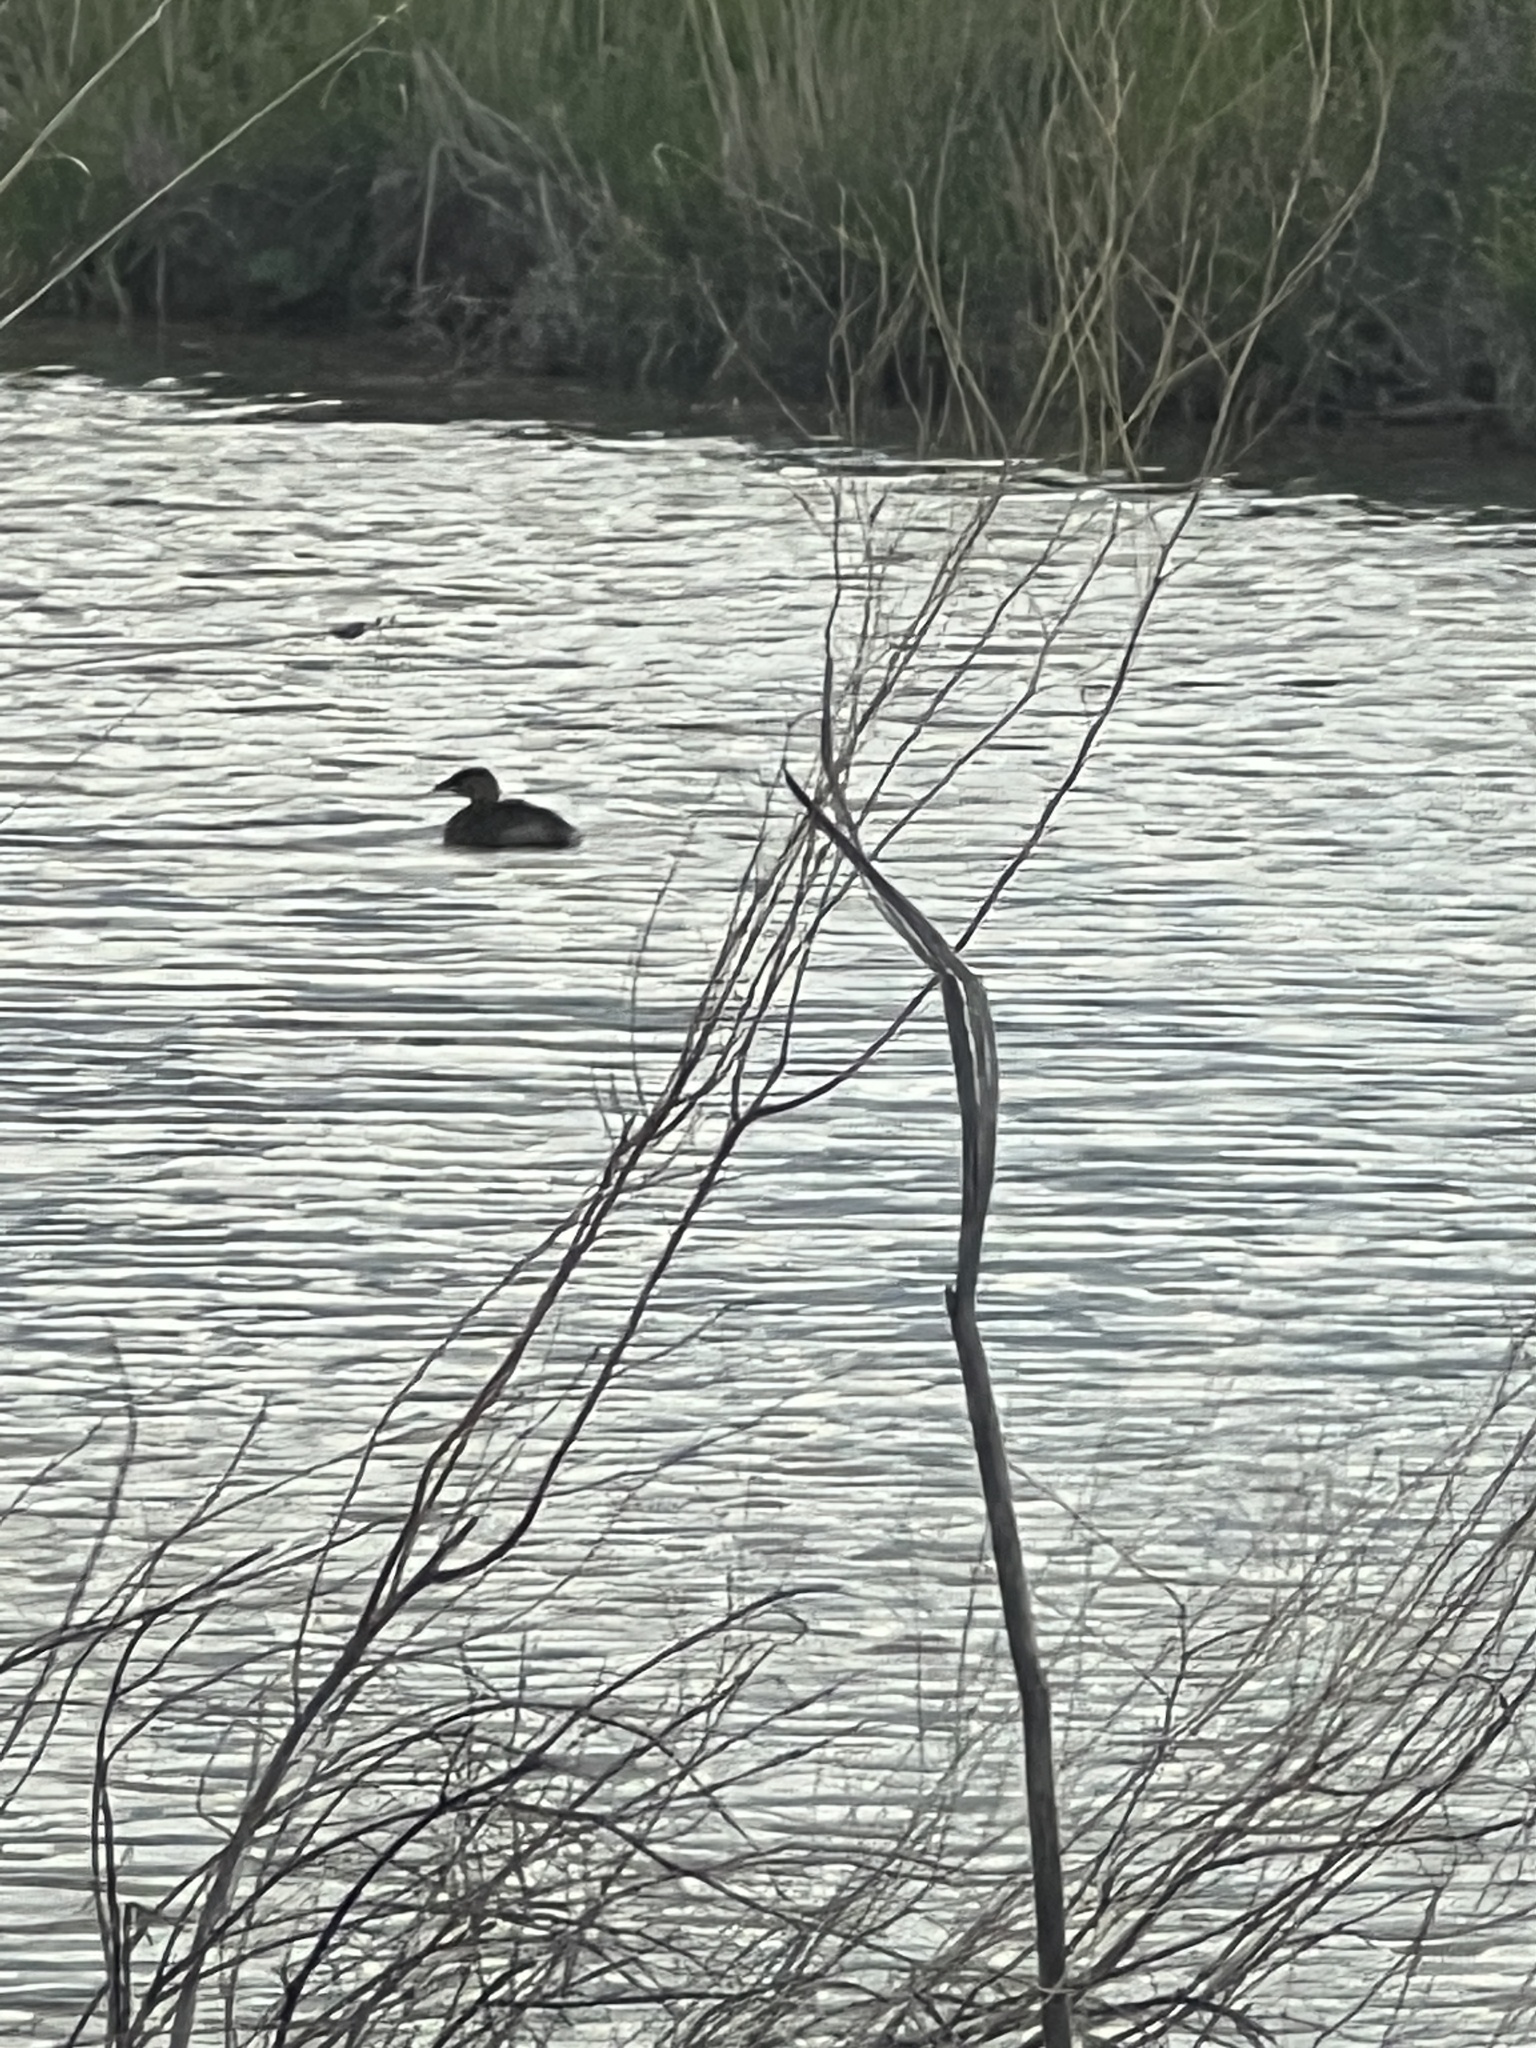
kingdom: Animalia
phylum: Chordata
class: Aves
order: Podicipediformes
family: Podicipedidae
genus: Podilymbus
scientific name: Podilymbus podiceps
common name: Pied-billed grebe
